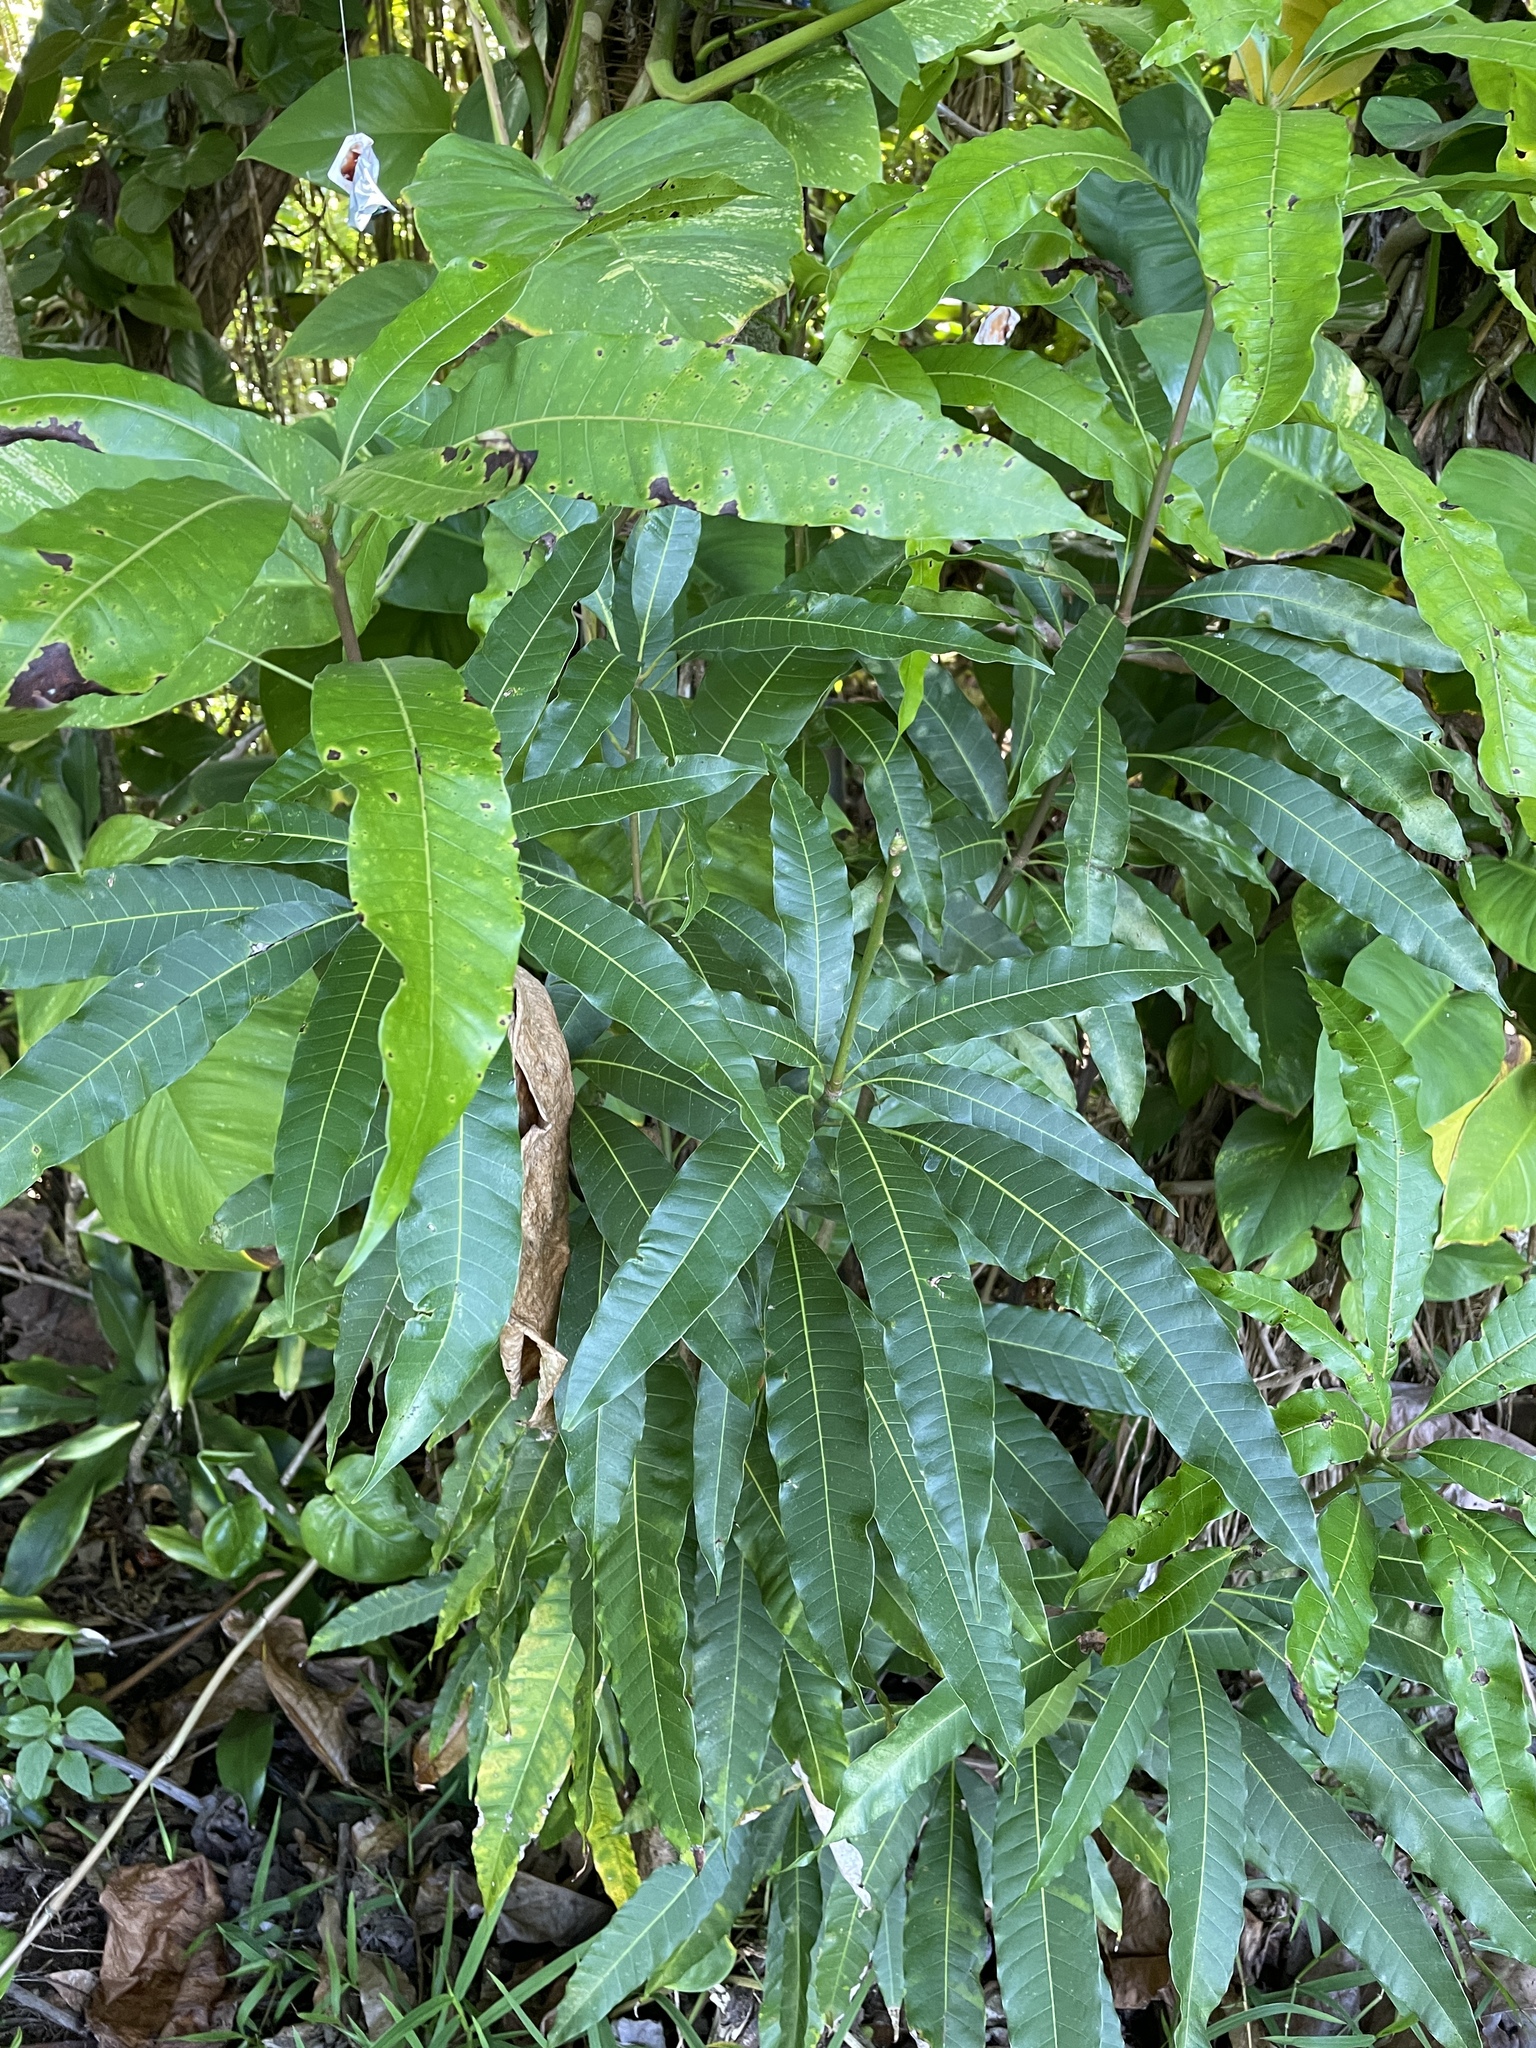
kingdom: Plantae
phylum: Tracheophyta
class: Magnoliopsida
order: Sapindales
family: Anacardiaceae
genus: Mangifera
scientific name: Mangifera indica
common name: Mango
